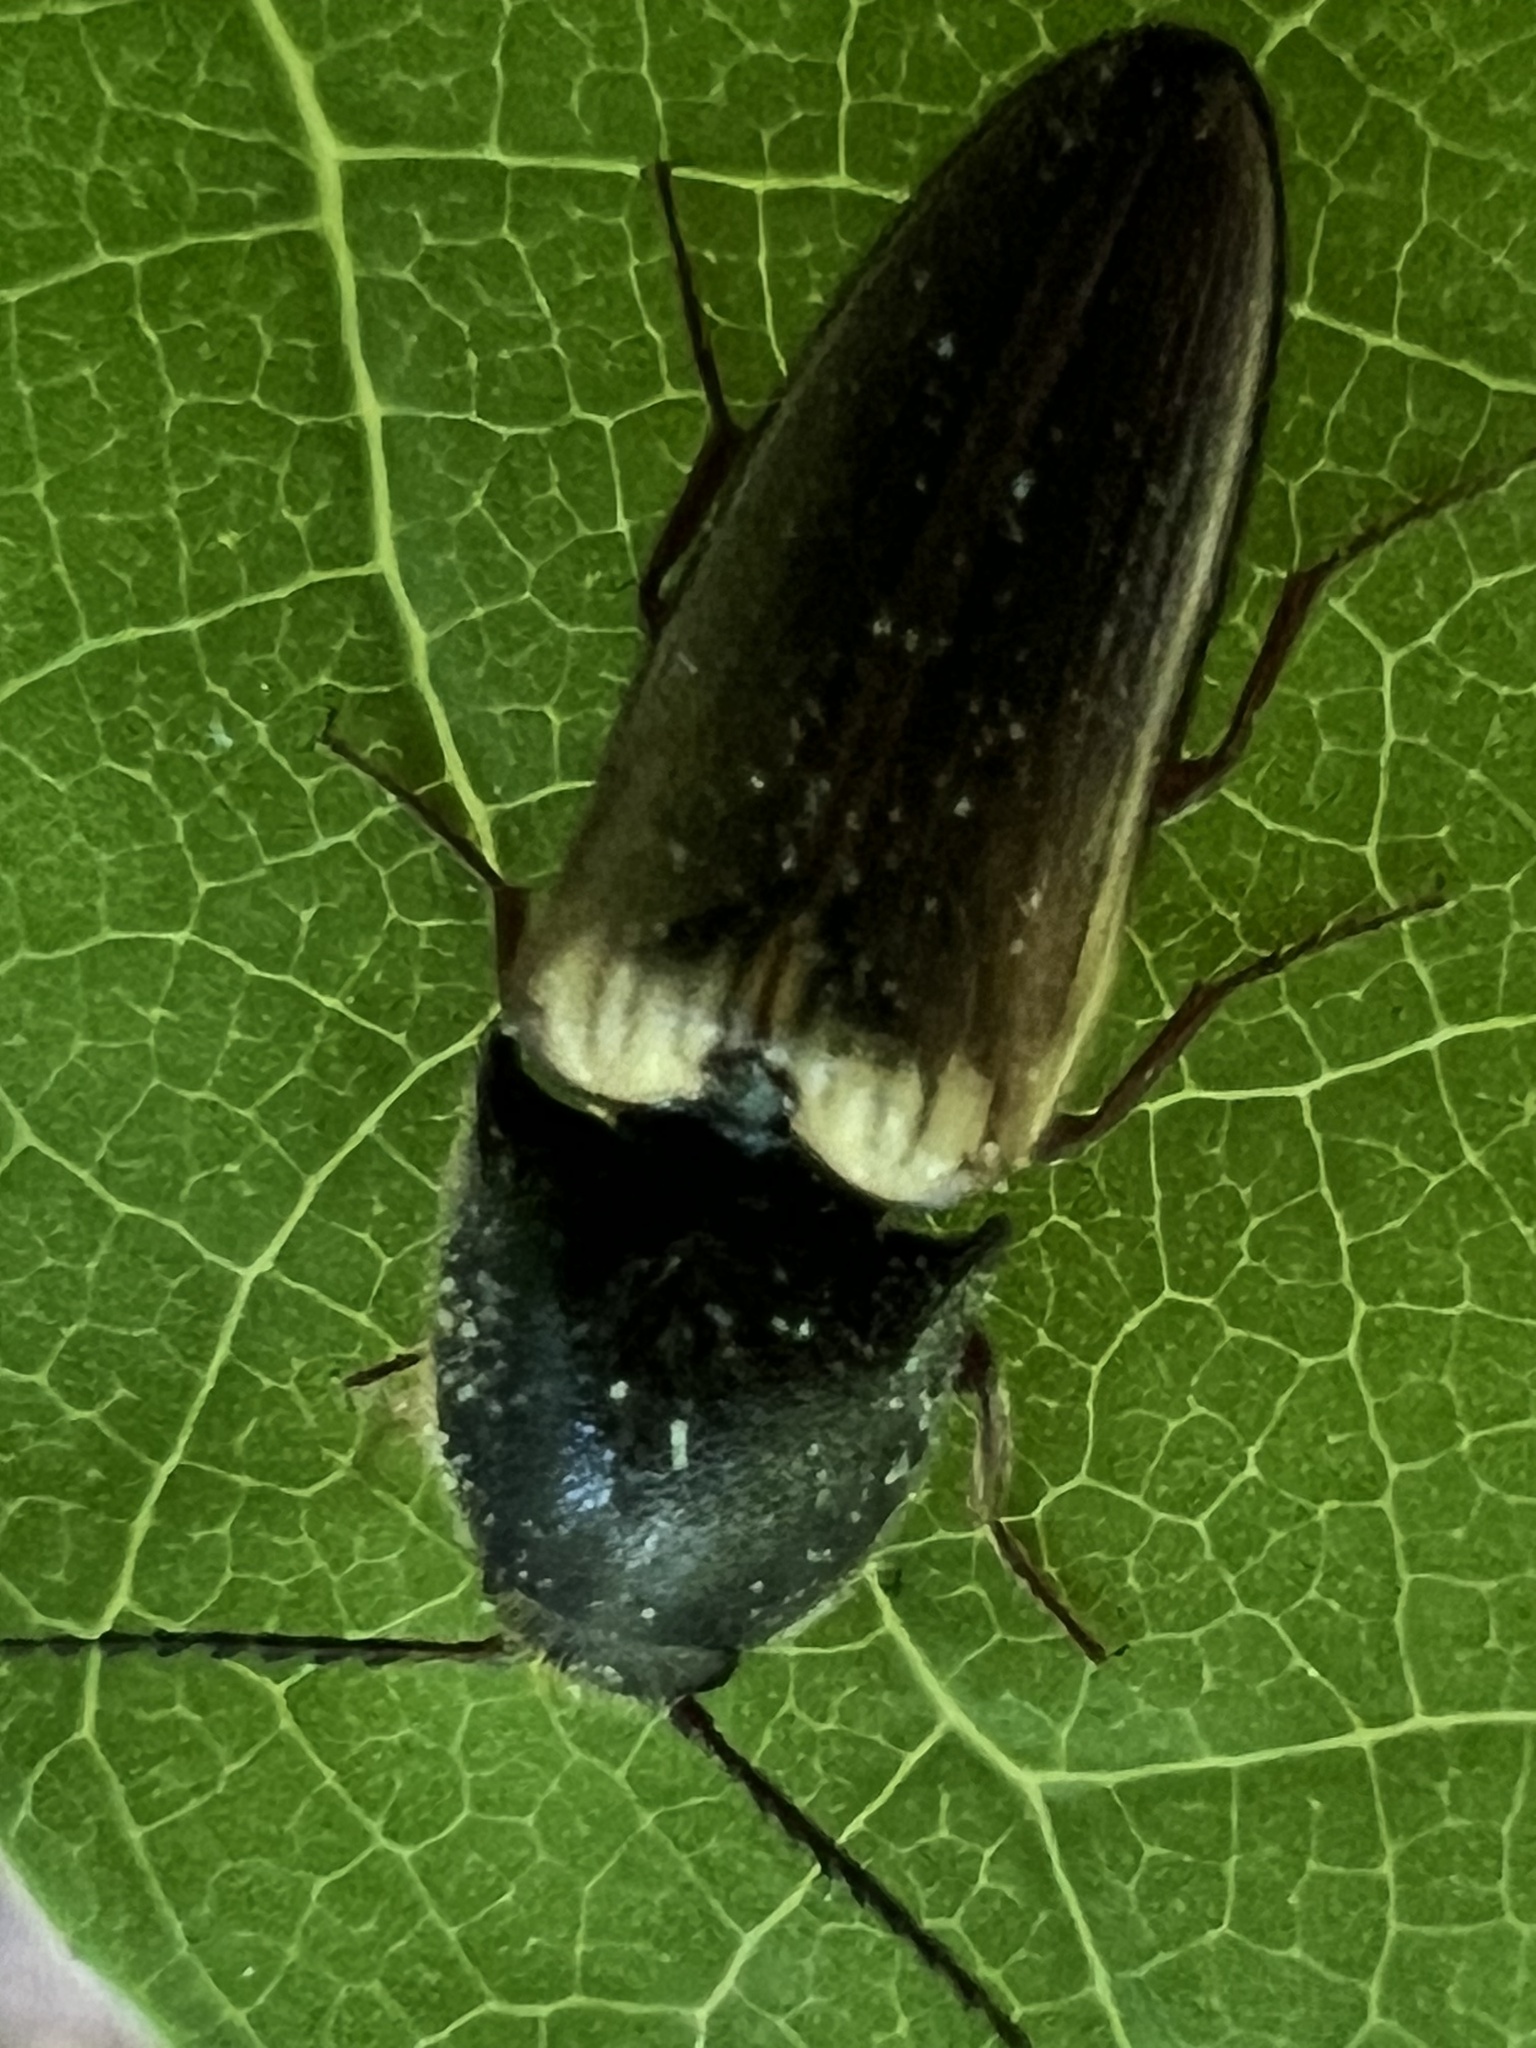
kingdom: Animalia
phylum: Arthropoda
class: Insecta
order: Coleoptera
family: Elateridae
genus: Ampedus
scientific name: Ampedus nigricollis
